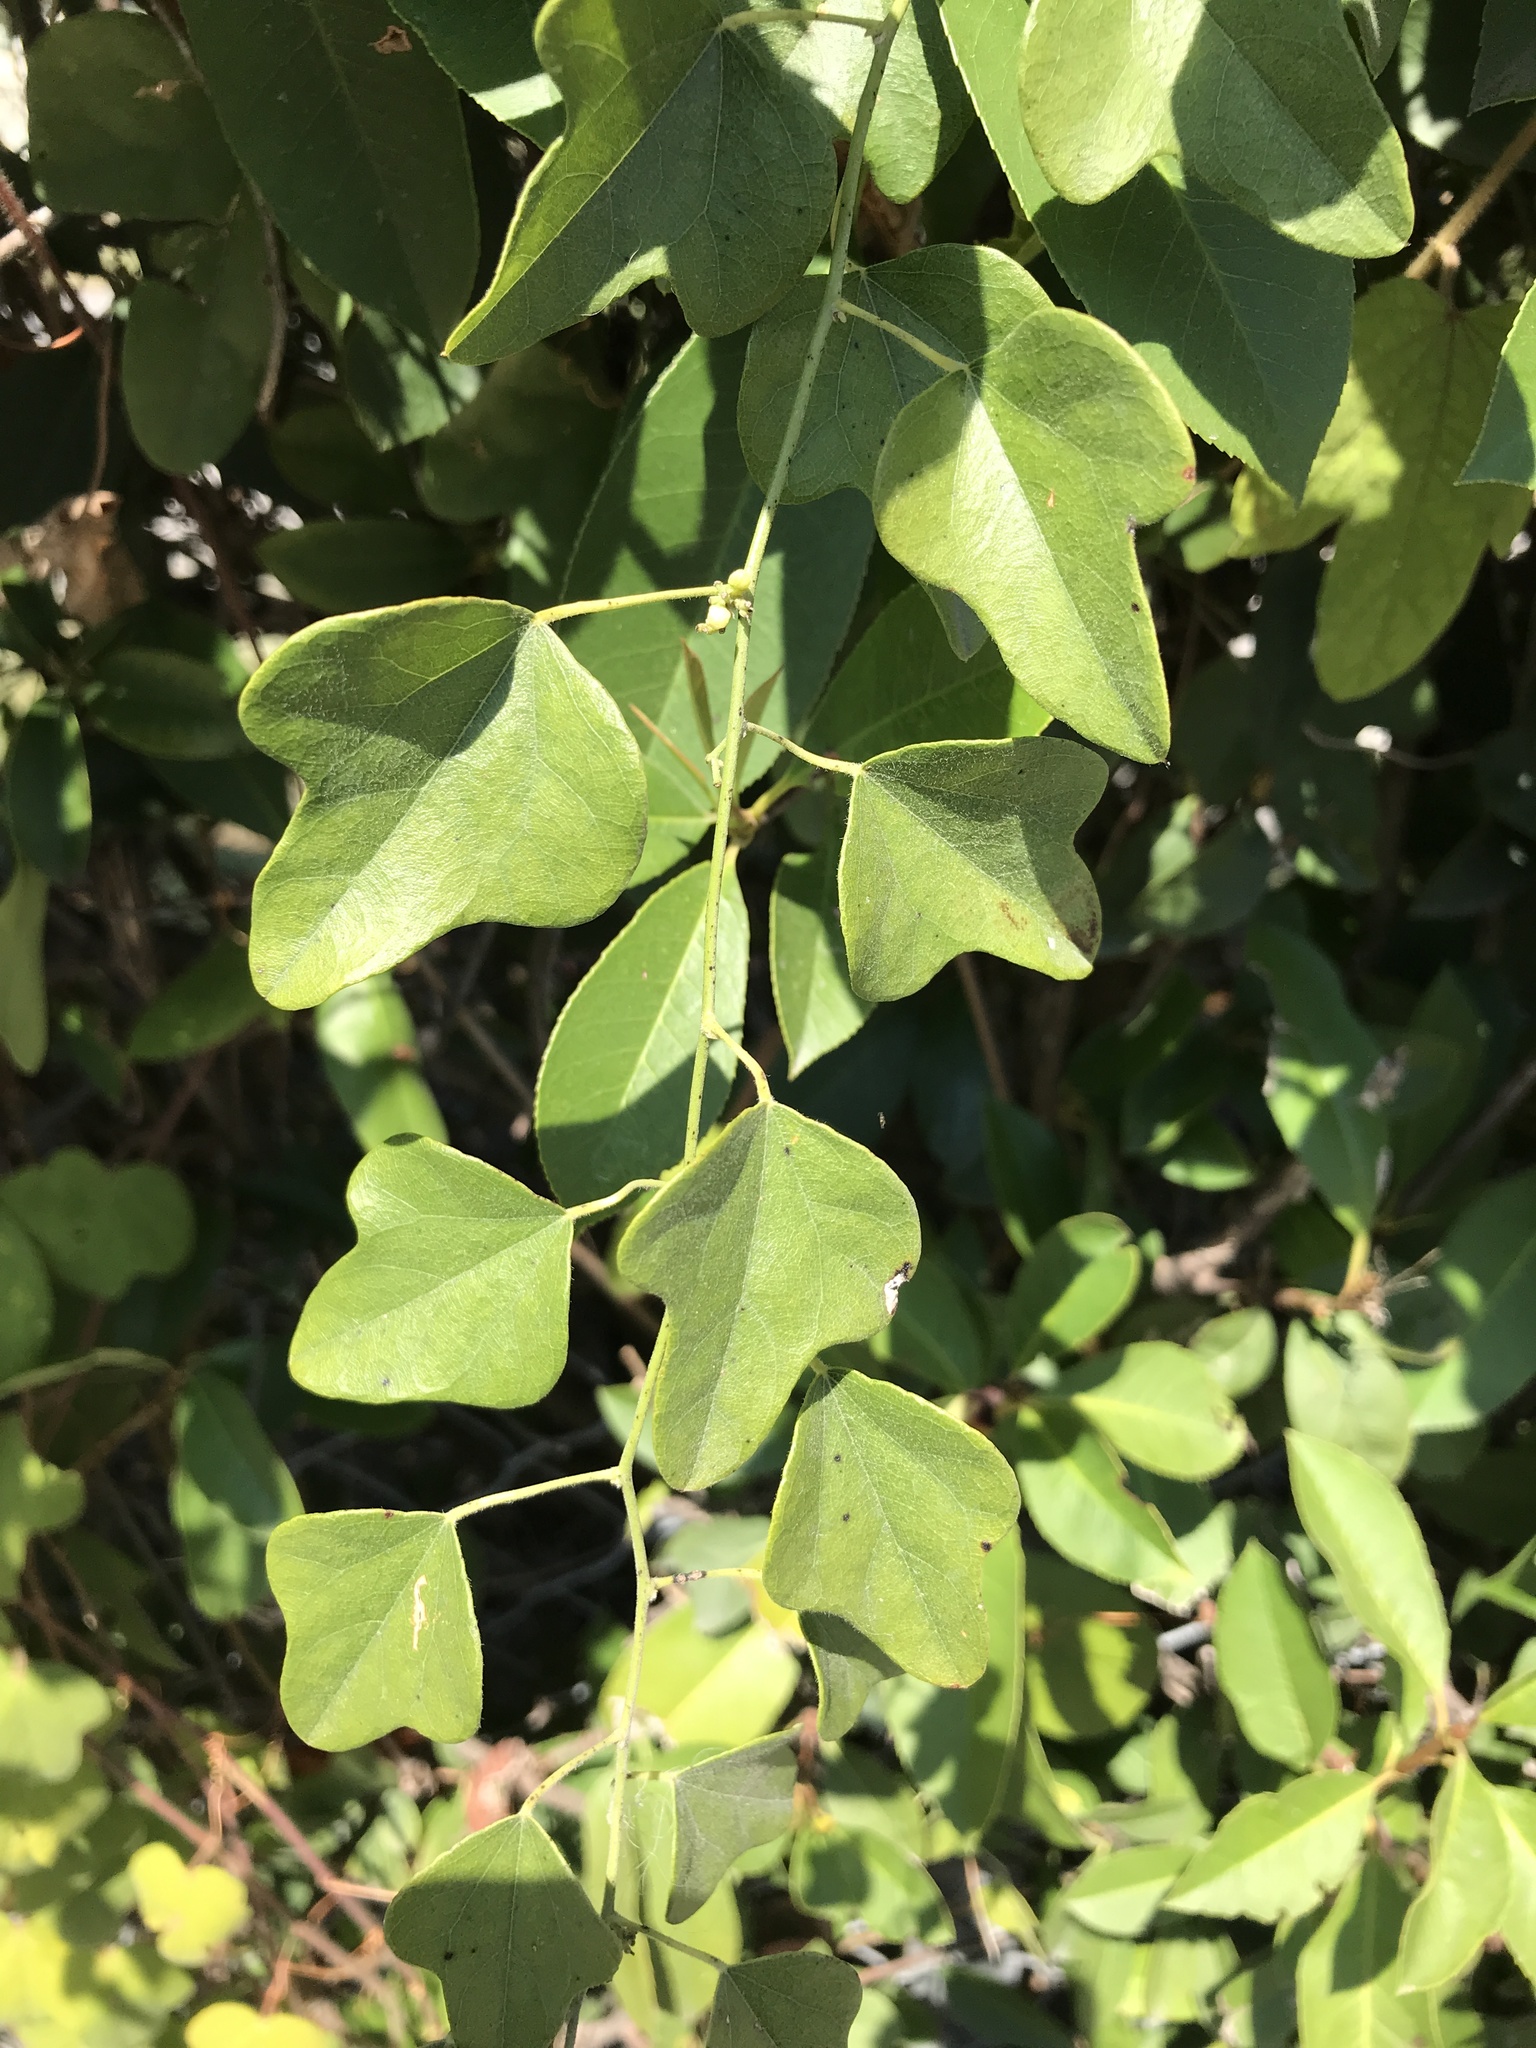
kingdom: Plantae
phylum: Tracheophyta
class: Magnoliopsida
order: Ranunculales
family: Menispermaceae
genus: Cocculus
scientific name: Cocculus carolinus
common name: Carolina moonseed
